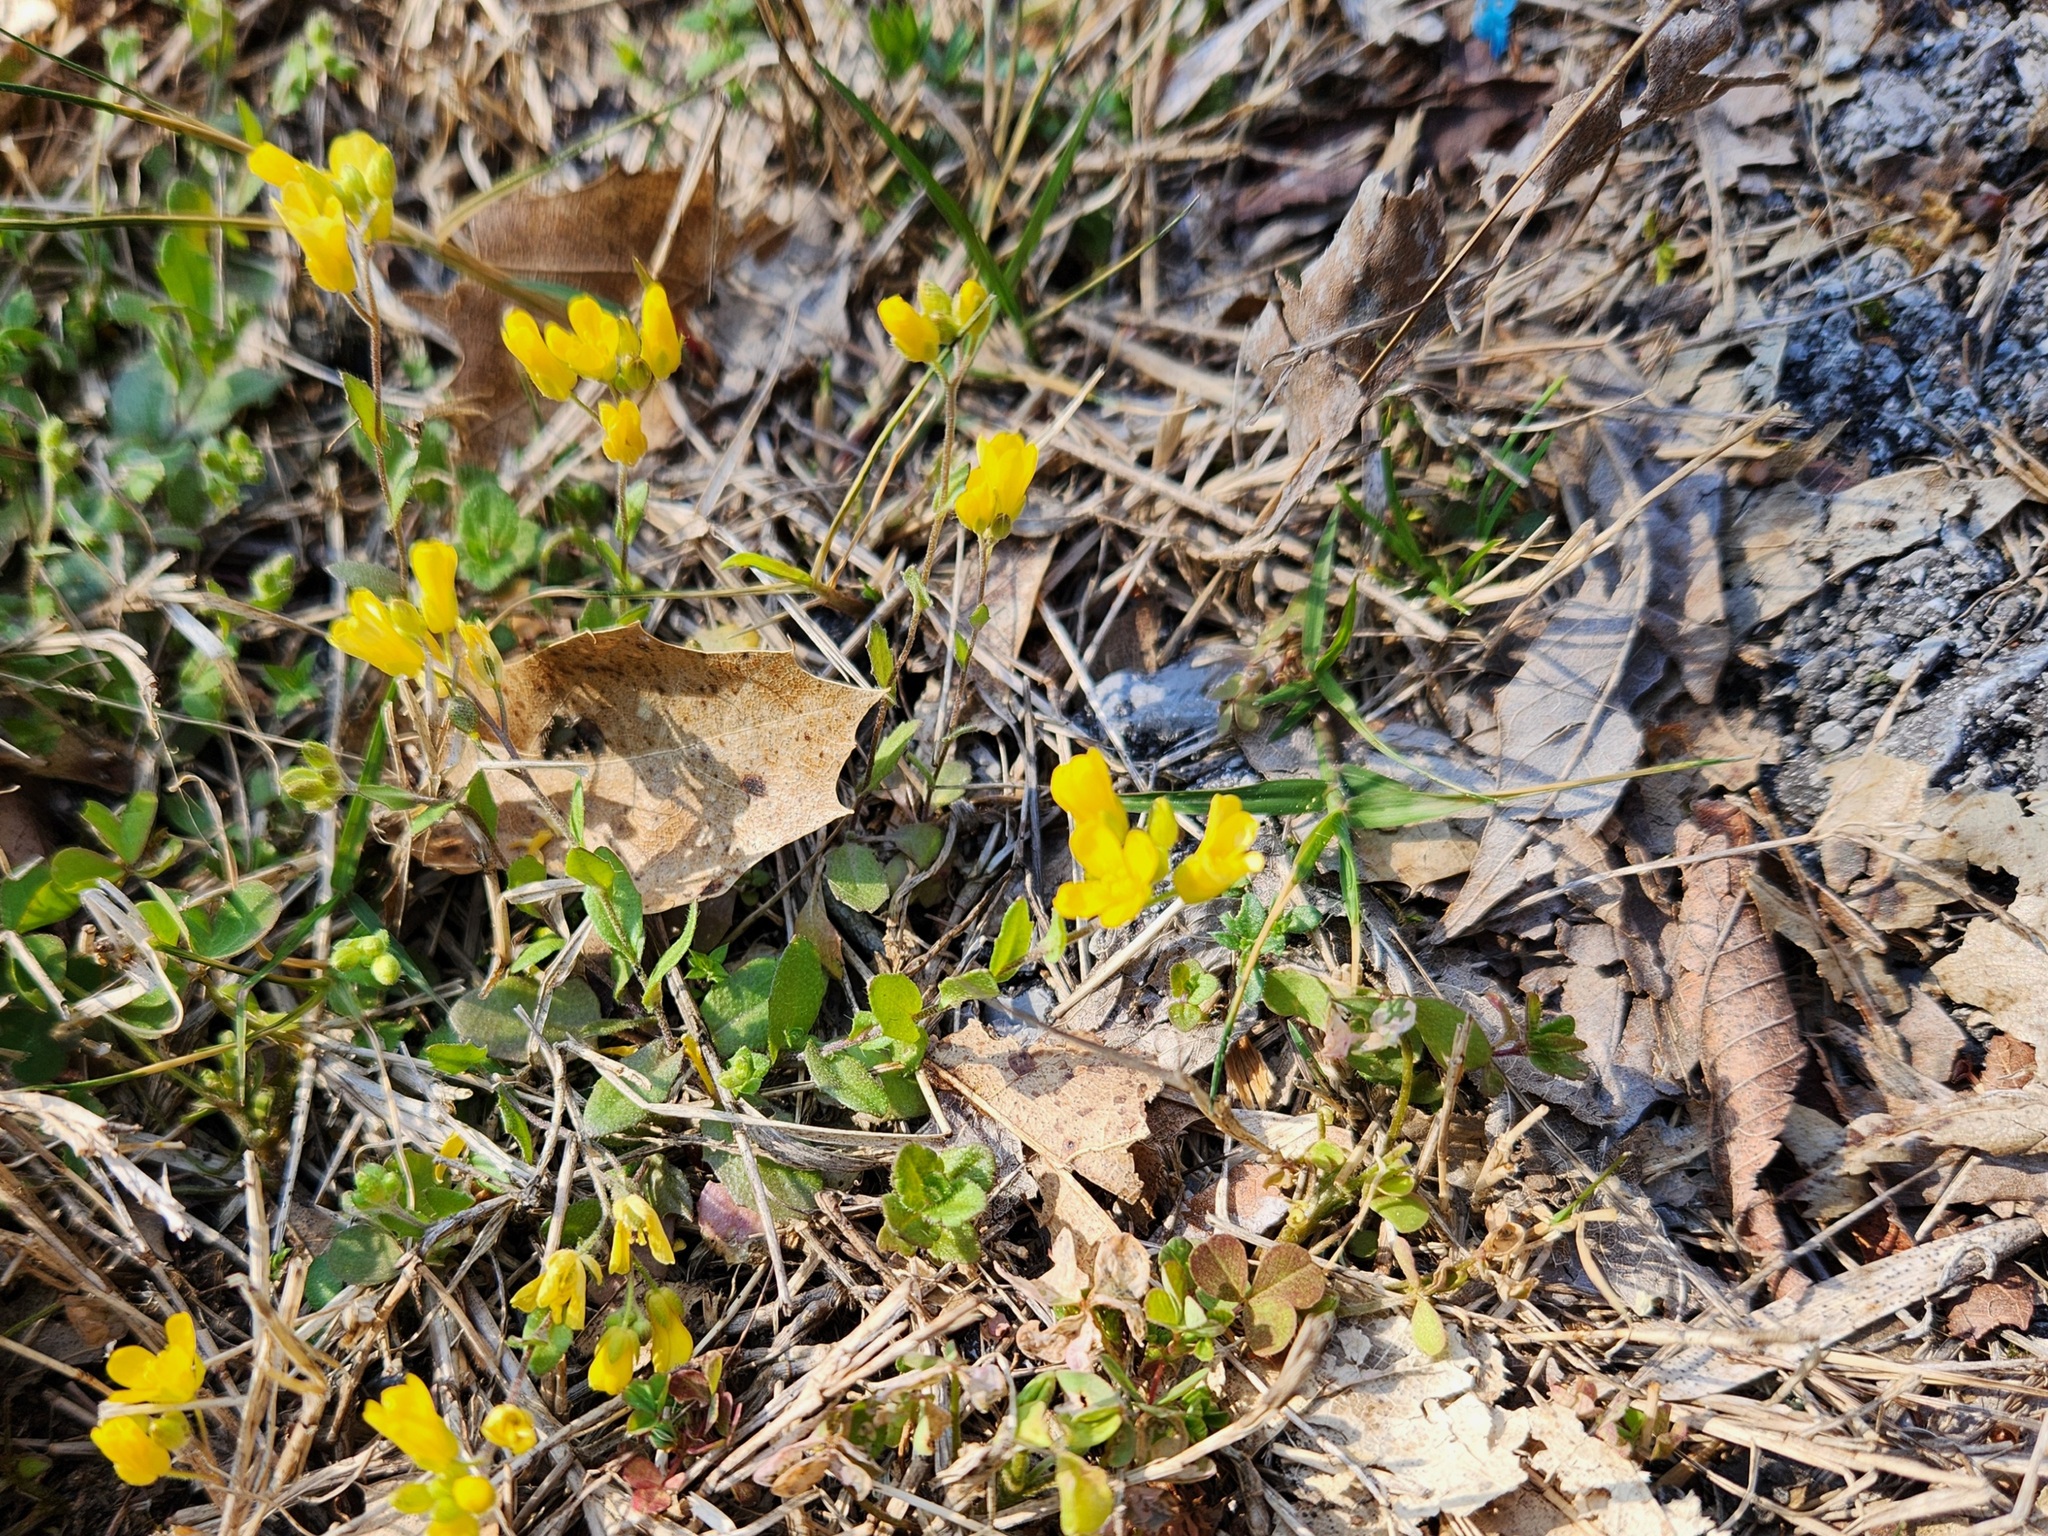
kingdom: Plantae
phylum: Tracheophyta
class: Magnoliopsida
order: Brassicales
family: Brassicaceae
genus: Paysonia
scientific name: Paysonia lescurii
